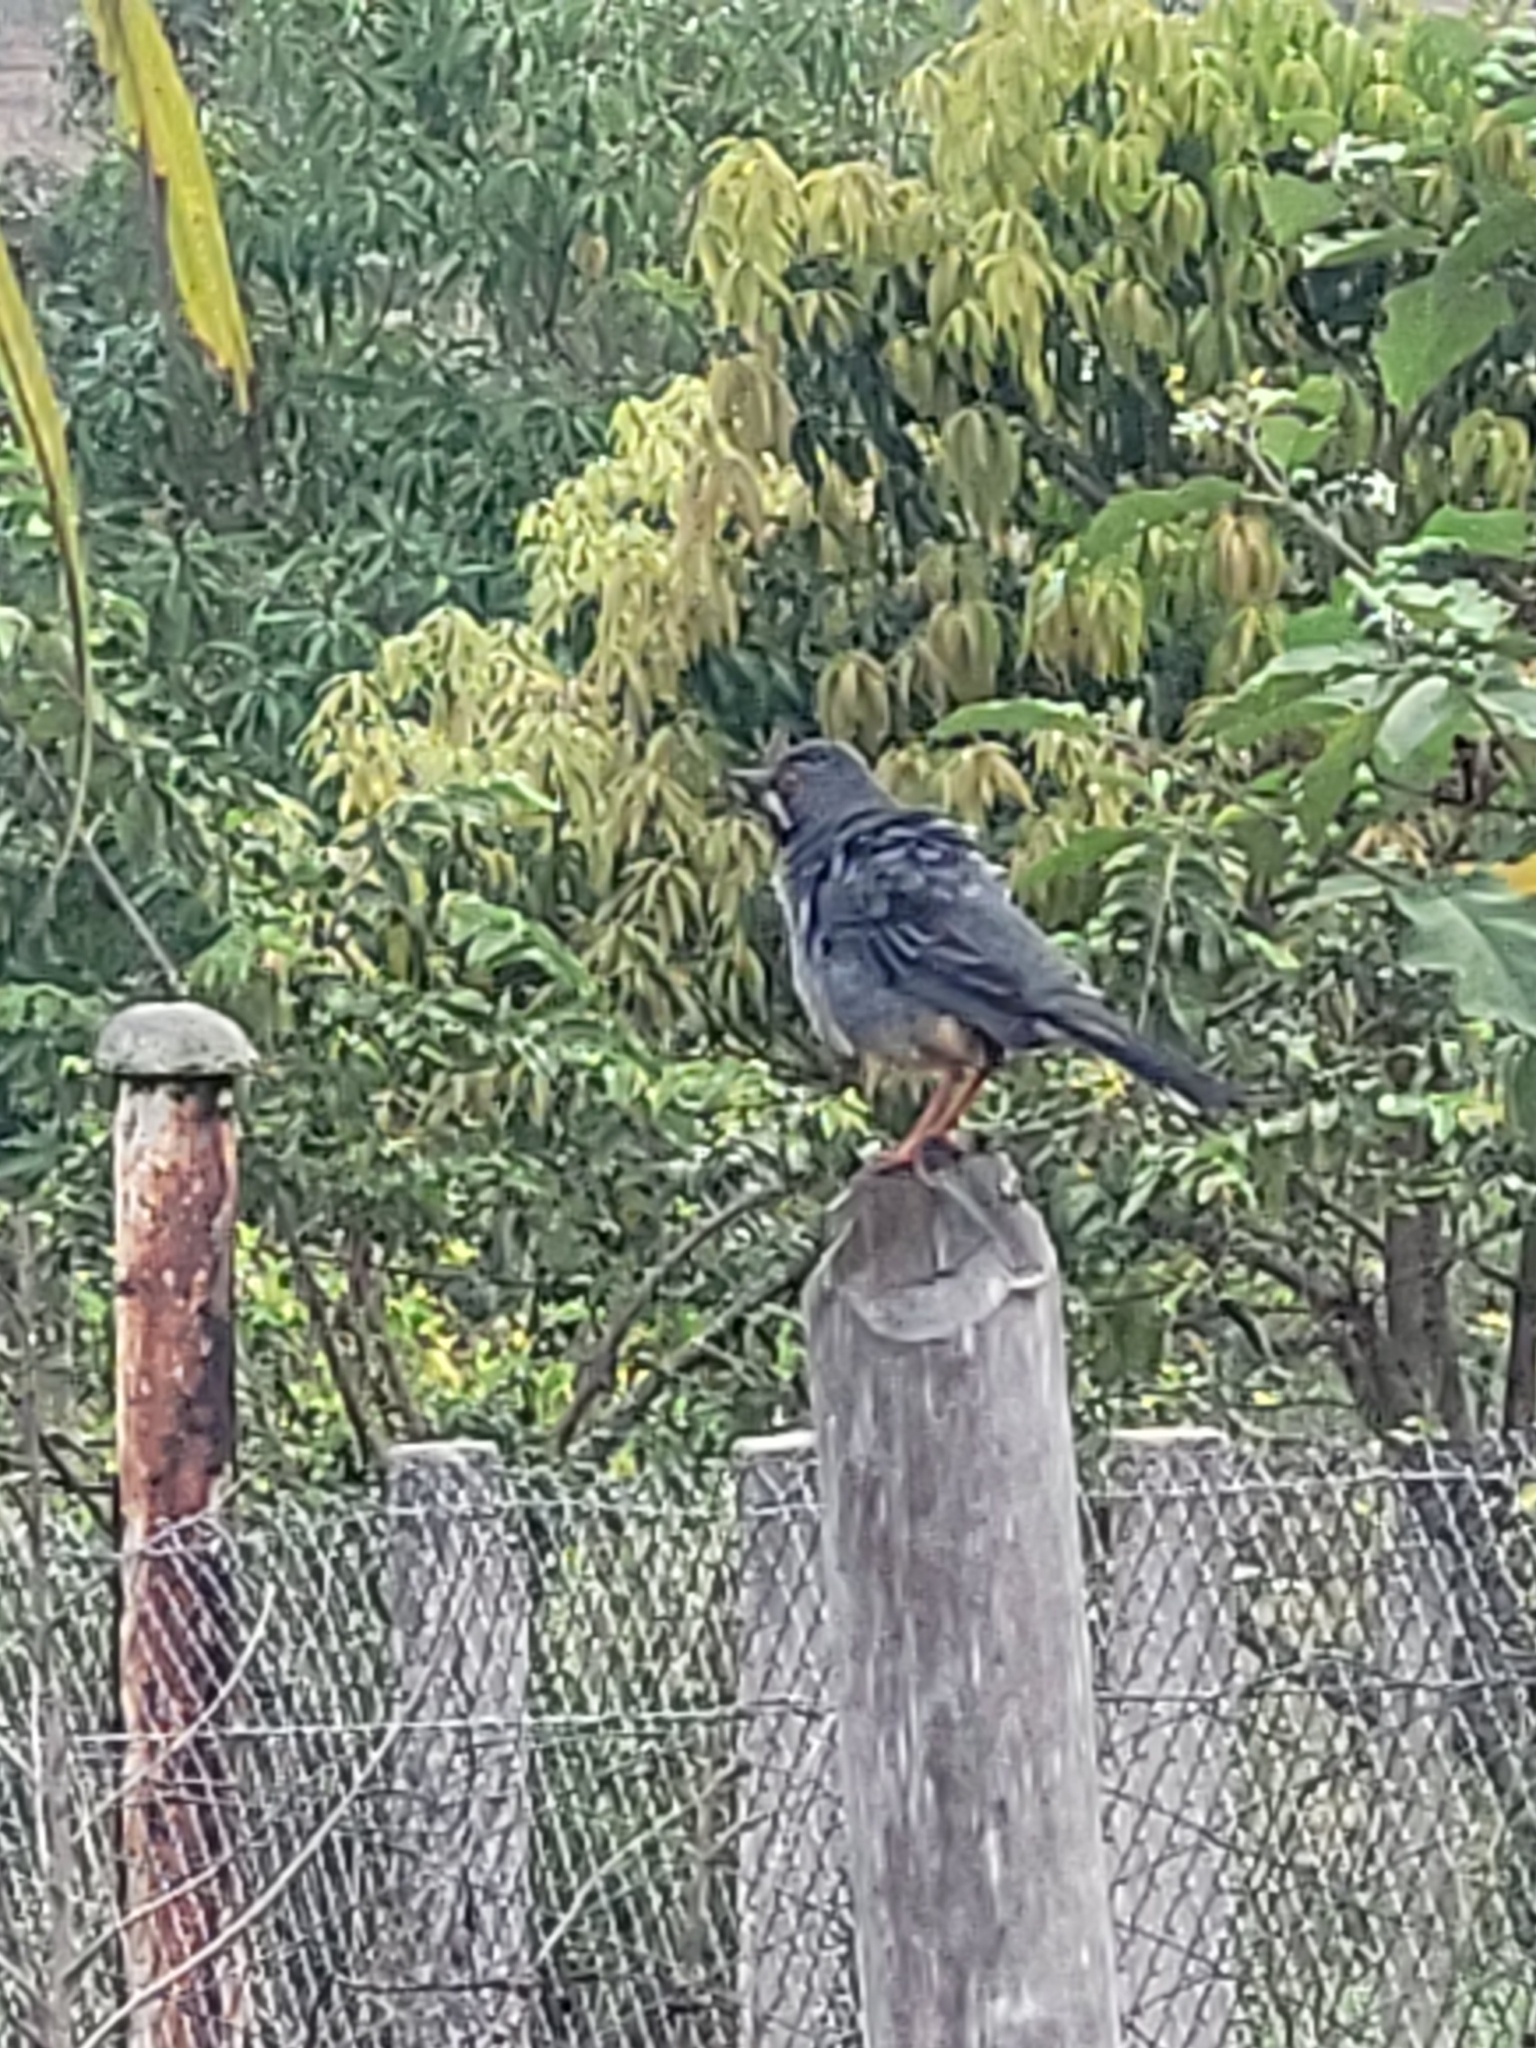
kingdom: Animalia
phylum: Chordata
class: Aves
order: Passeriformes
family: Turdidae
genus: Turdus
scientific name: Turdus plumbeus
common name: Red-legged thrush
